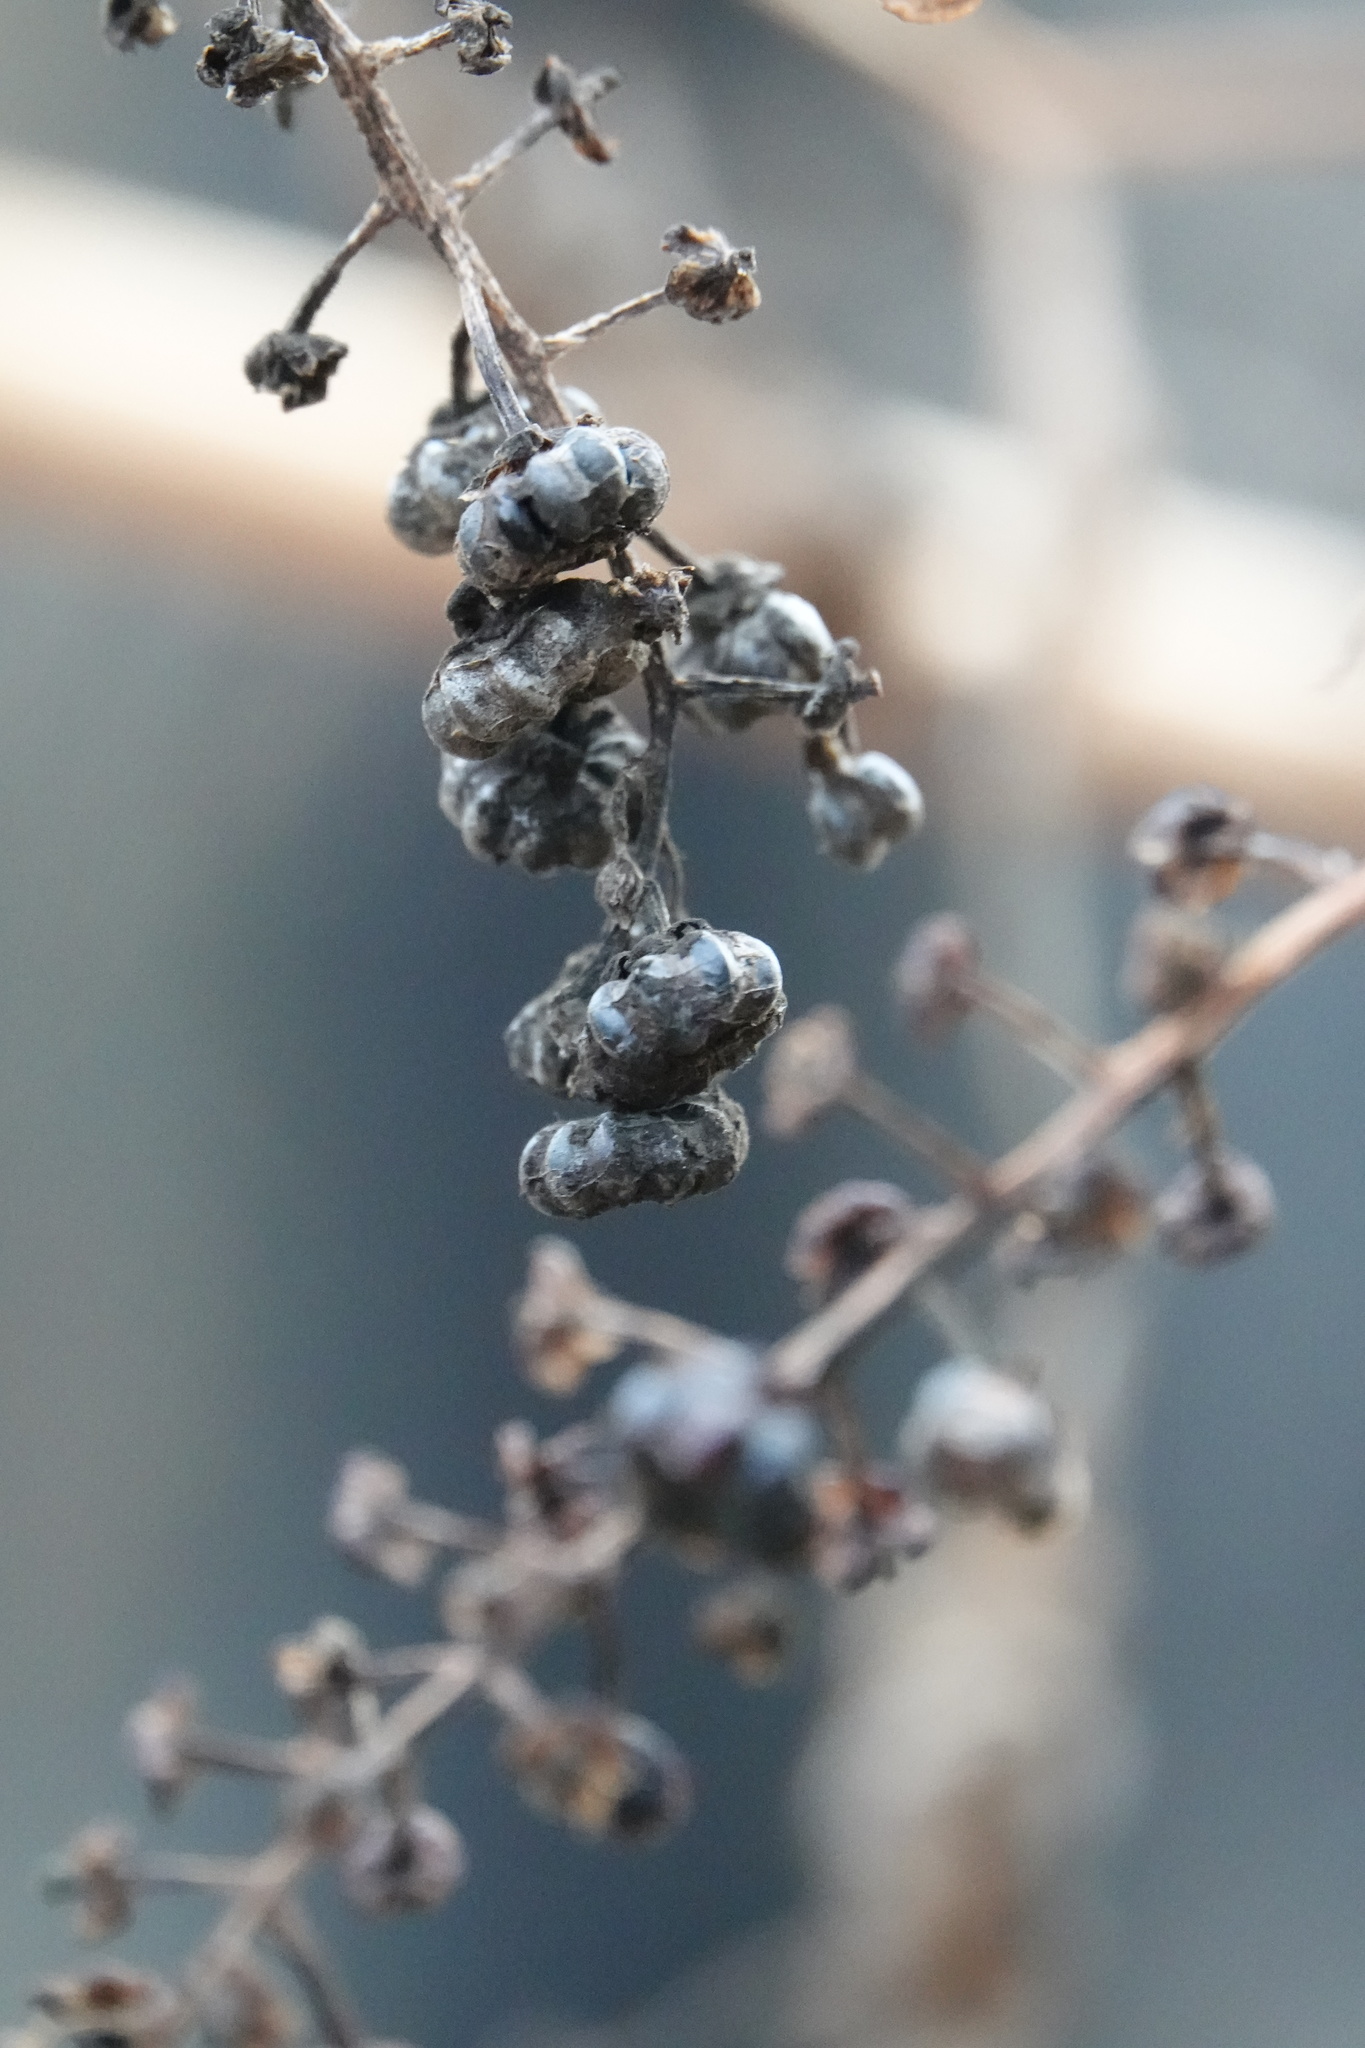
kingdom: Plantae
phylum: Tracheophyta
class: Magnoliopsida
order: Caryophyllales
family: Phytolaccaceae
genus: Phytolacca
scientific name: Phytolacca americana
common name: American pokeweed
